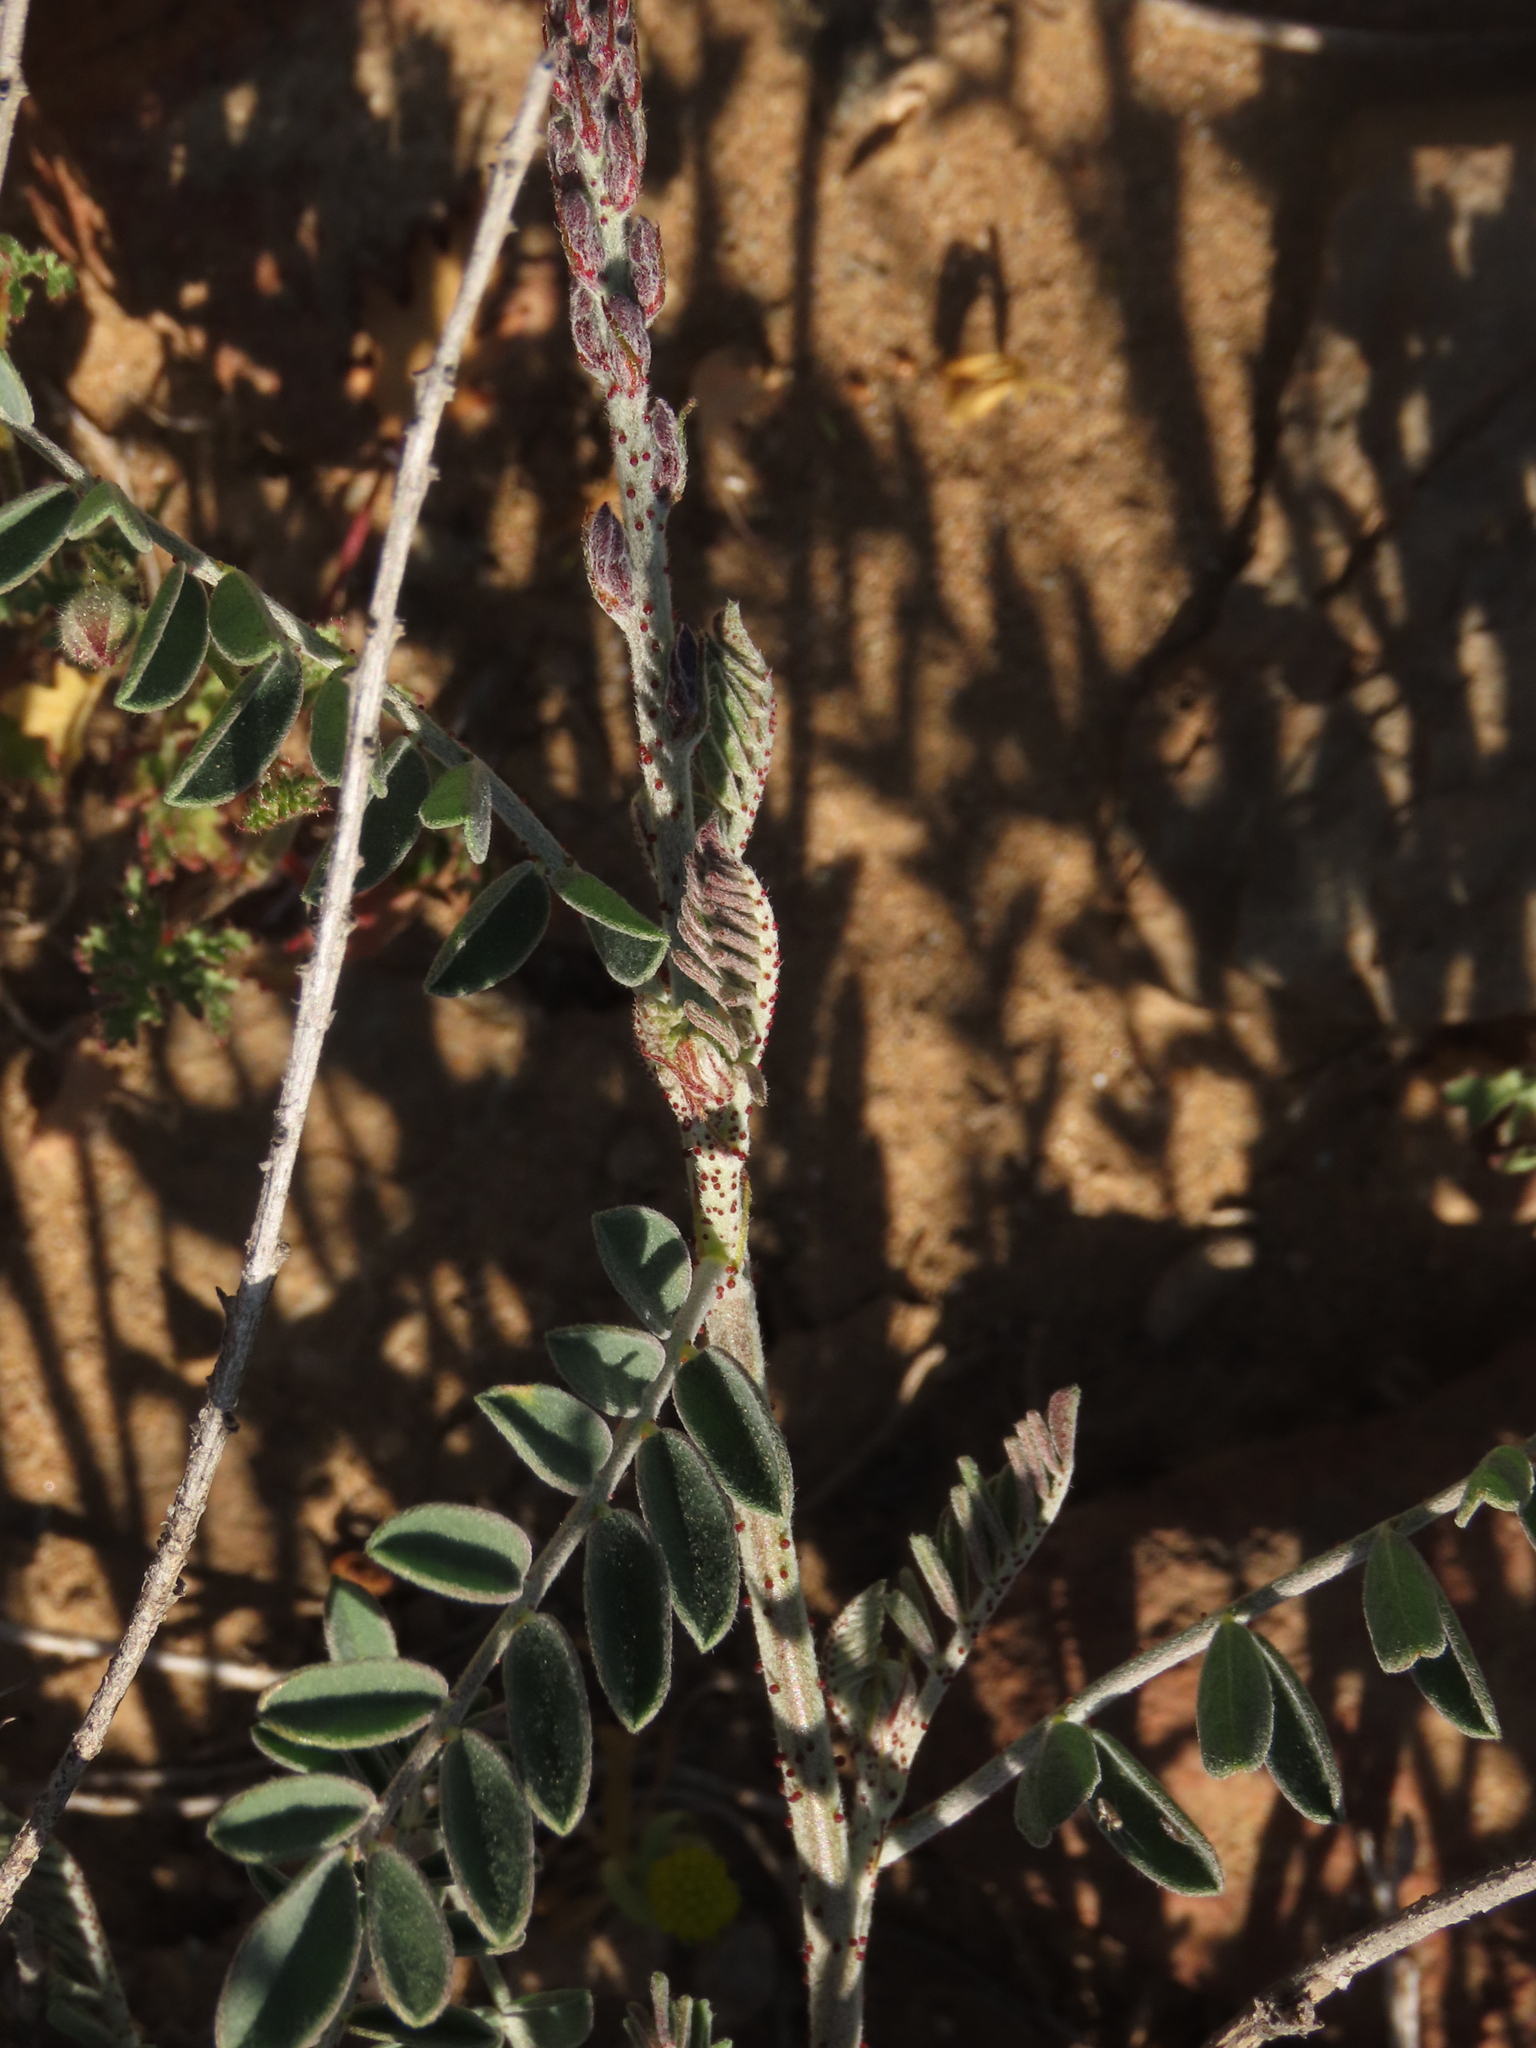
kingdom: Plantae
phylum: Tracheophyta
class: Magnoliopsida
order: Fabales
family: Fabaceae
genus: Errazurizia
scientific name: Errazurizia multifoliolata
